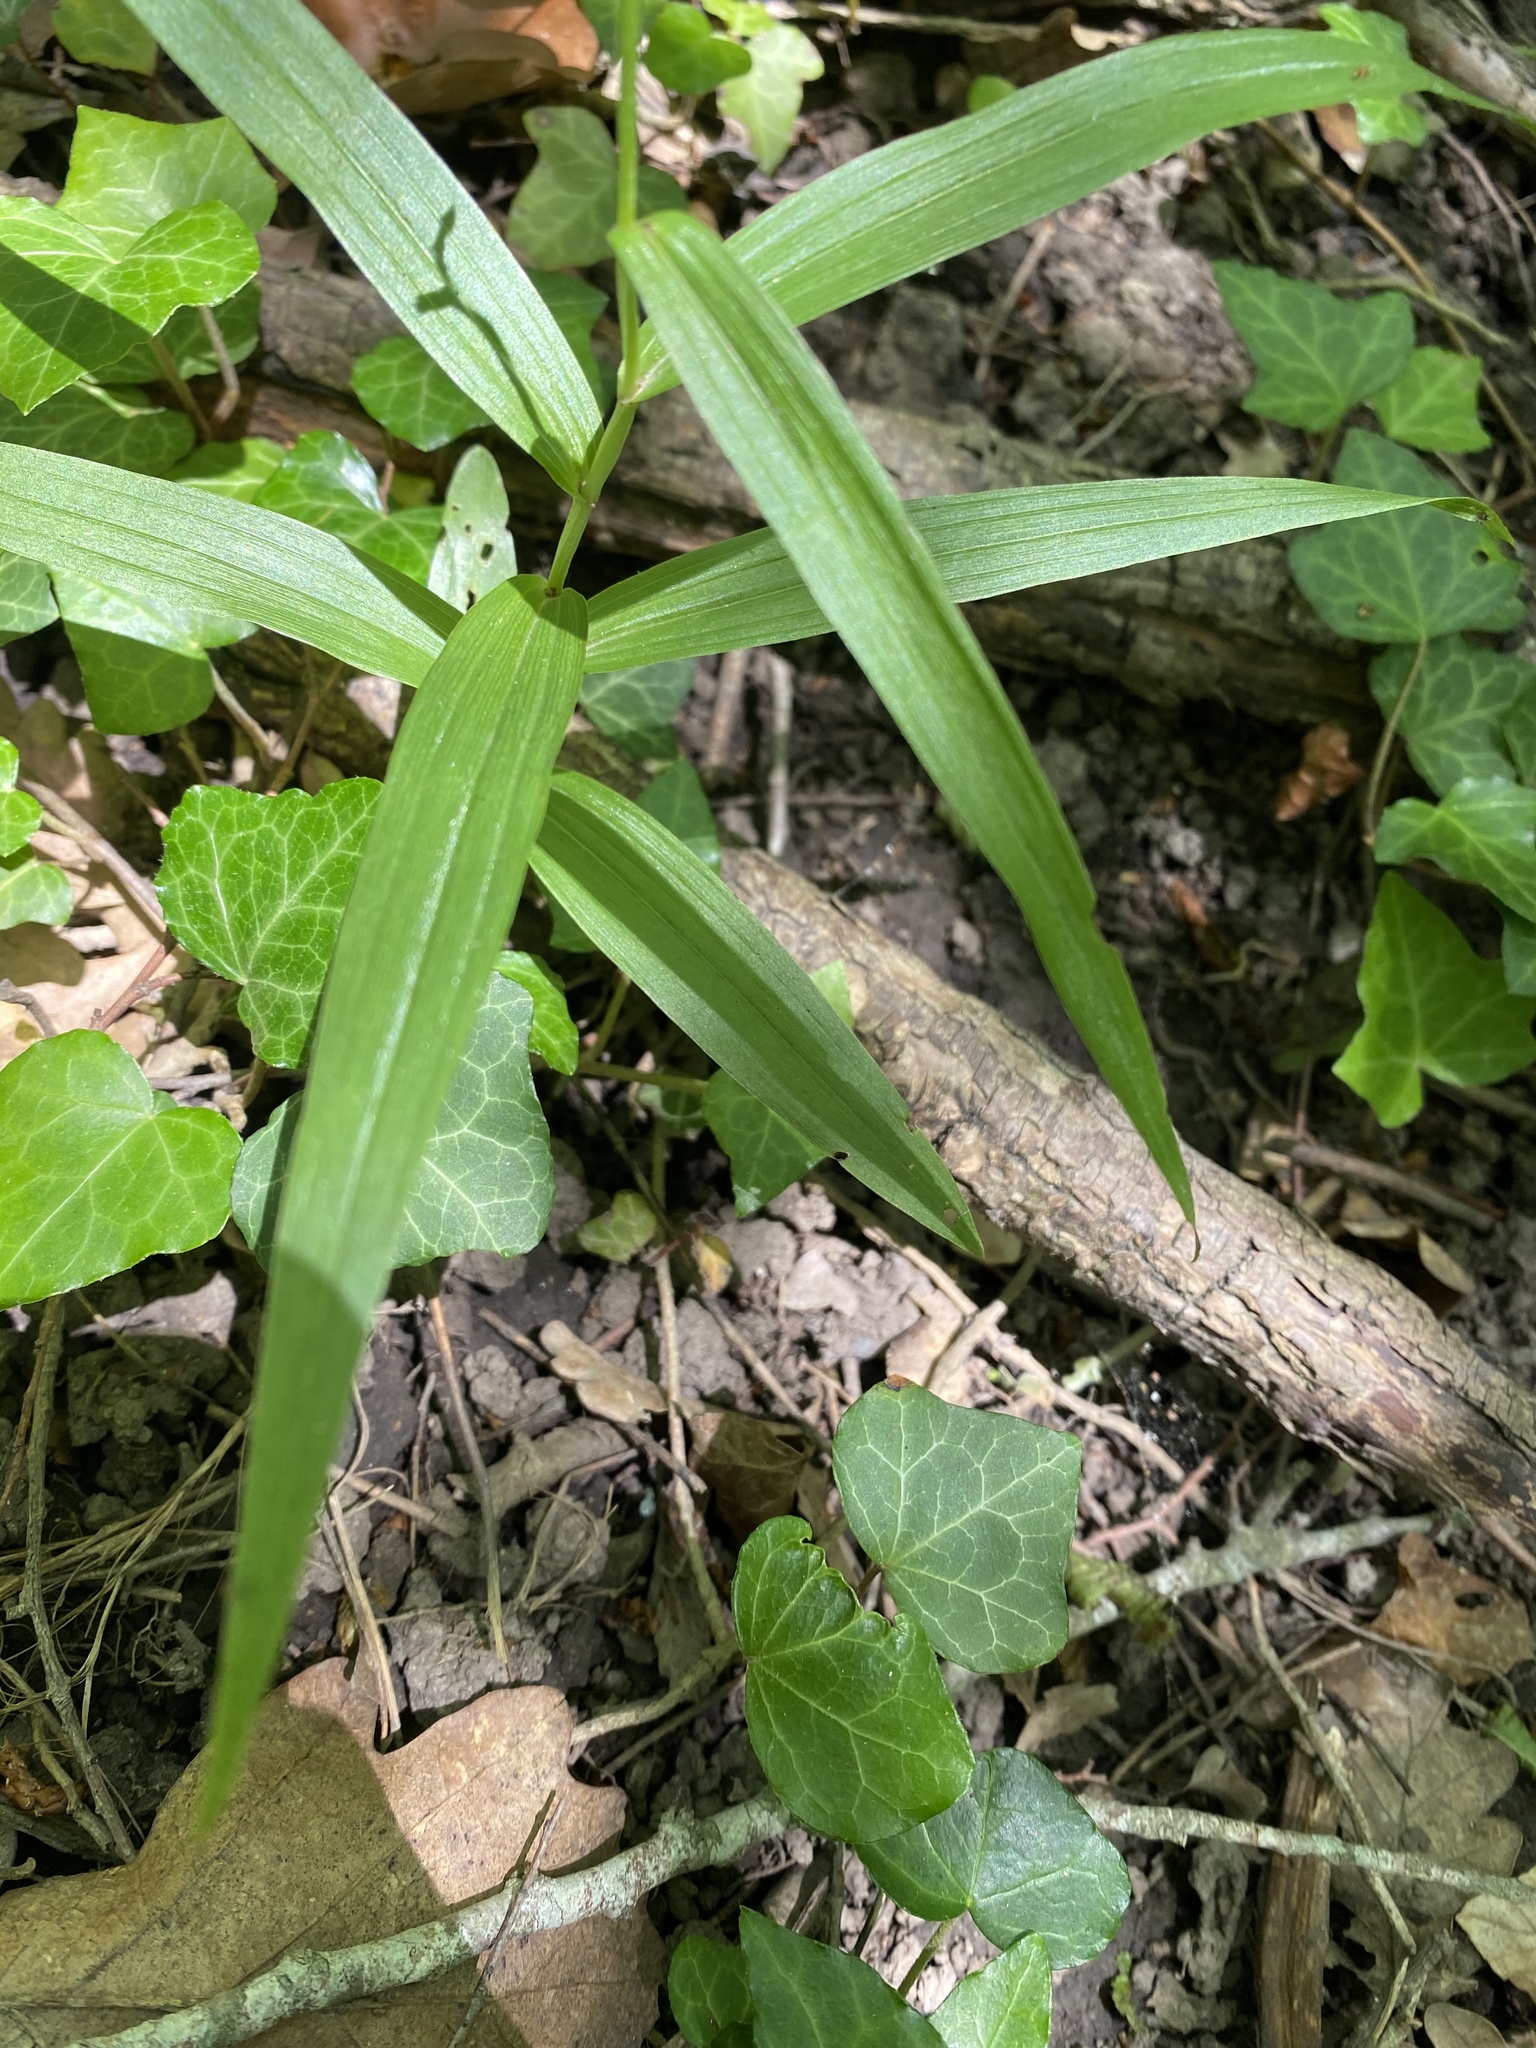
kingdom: Plantae
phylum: Tracheophyta
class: Liliopsida
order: Asparagales
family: Orchidaceae
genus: Cephalanthera
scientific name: Cephalanthera longifolia
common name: Narrow-leaved helleborine
